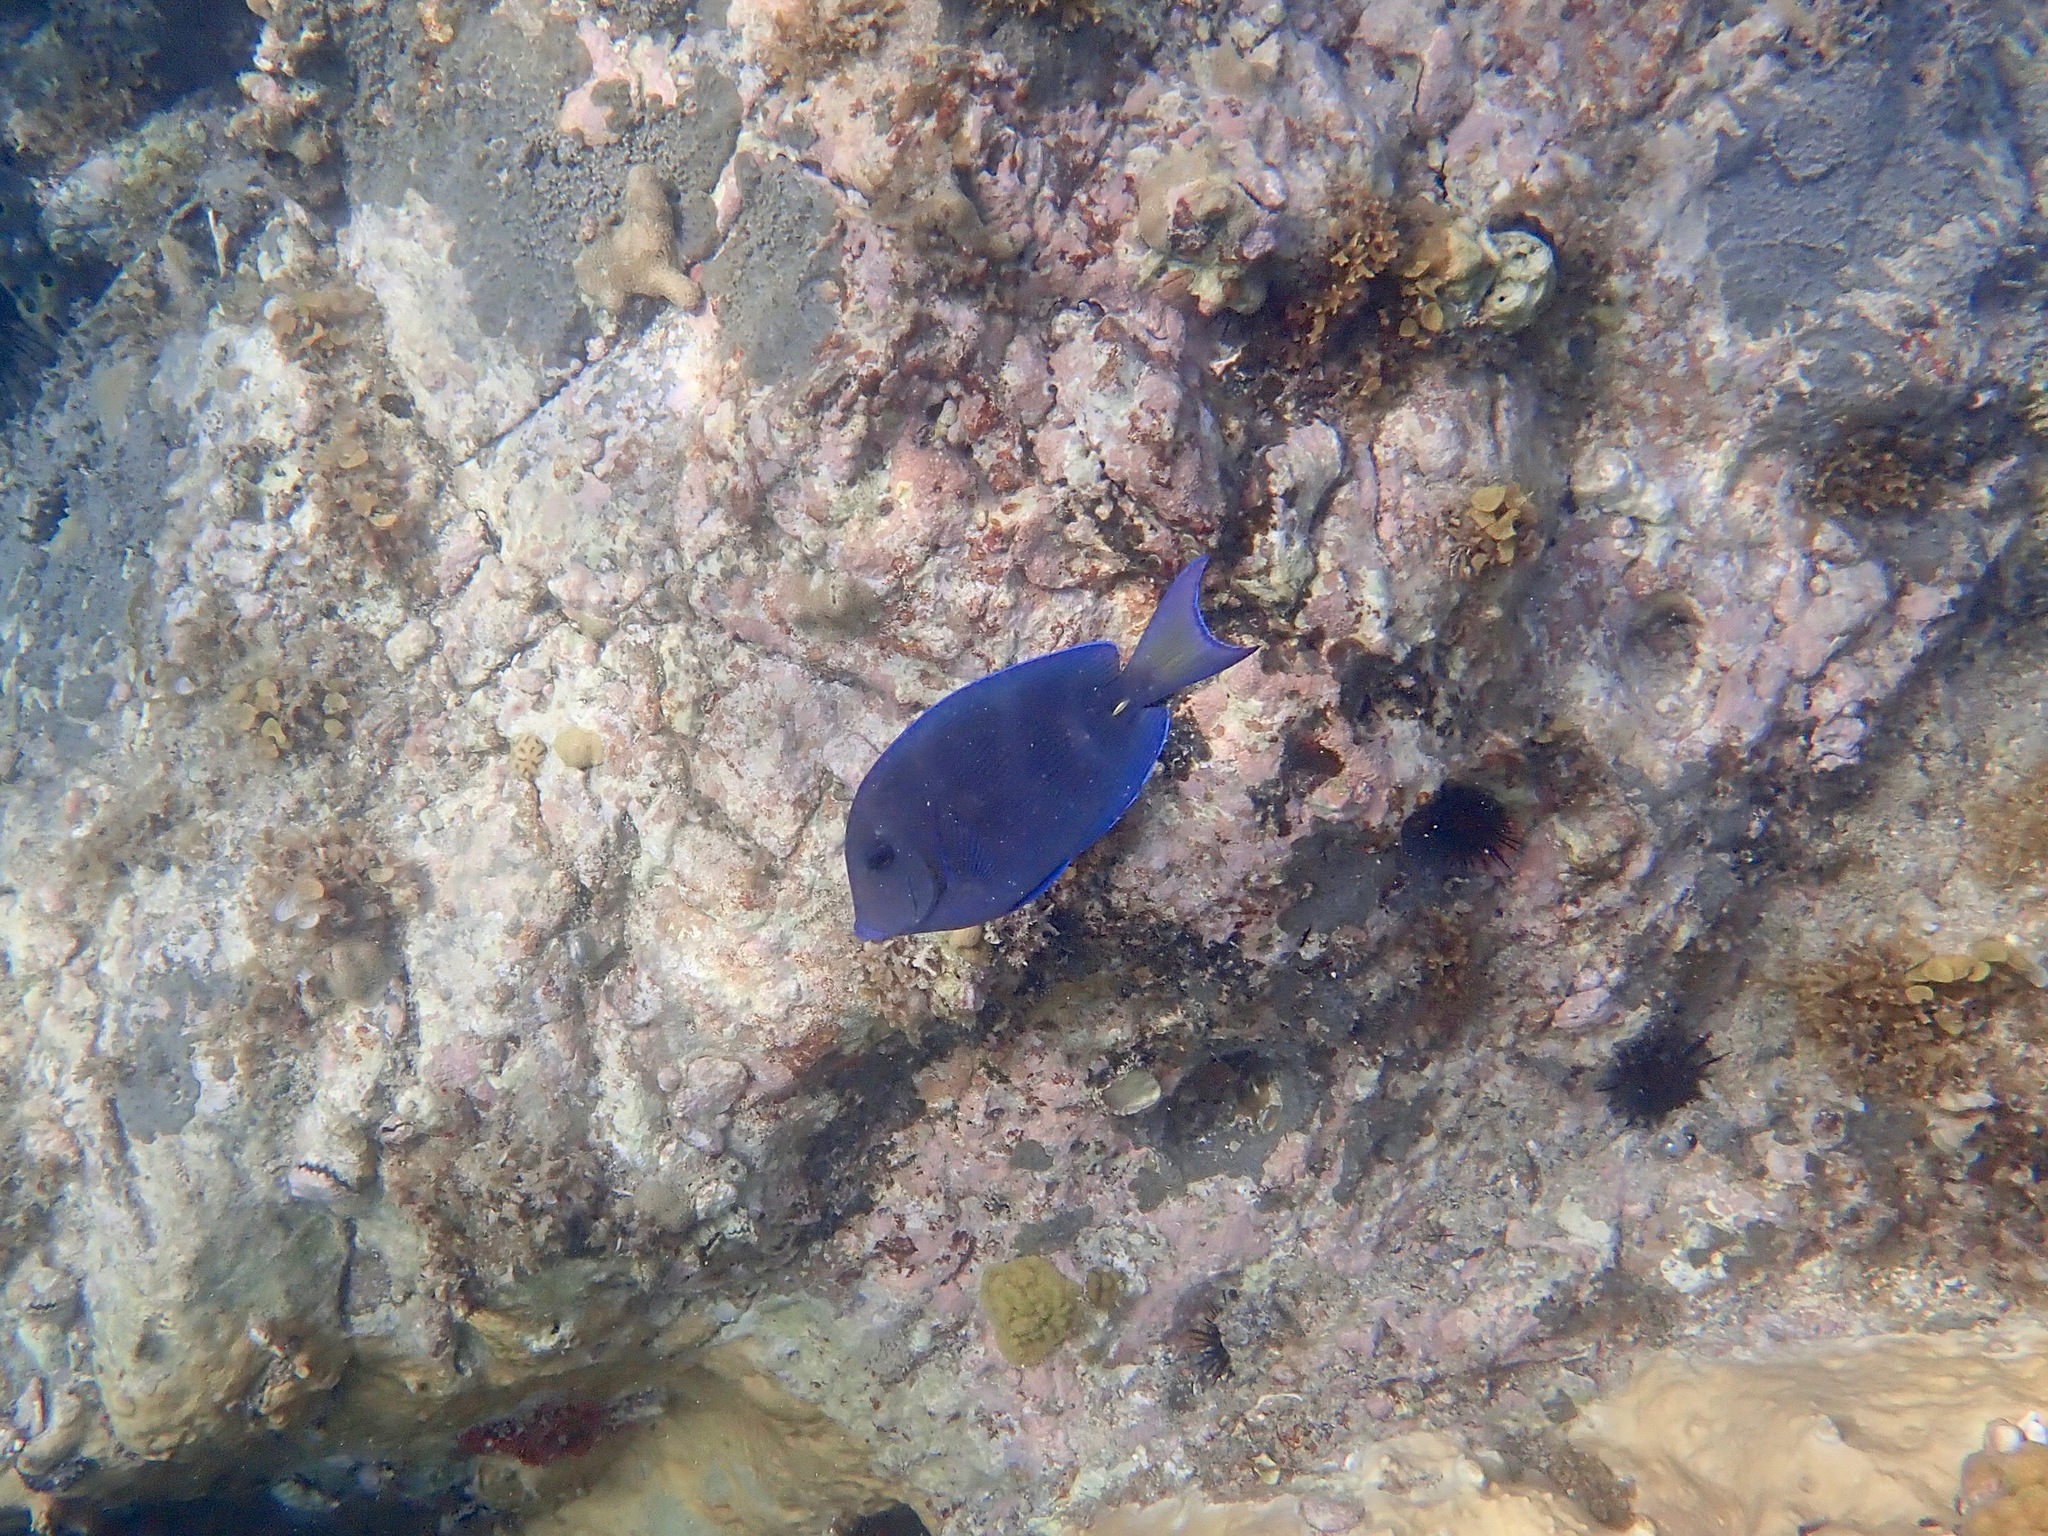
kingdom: Animalia
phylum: Chordata
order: Perciformes
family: Acanthuridae
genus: Acanthurus
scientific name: Acanthurus coeruleus
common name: Blue tang
